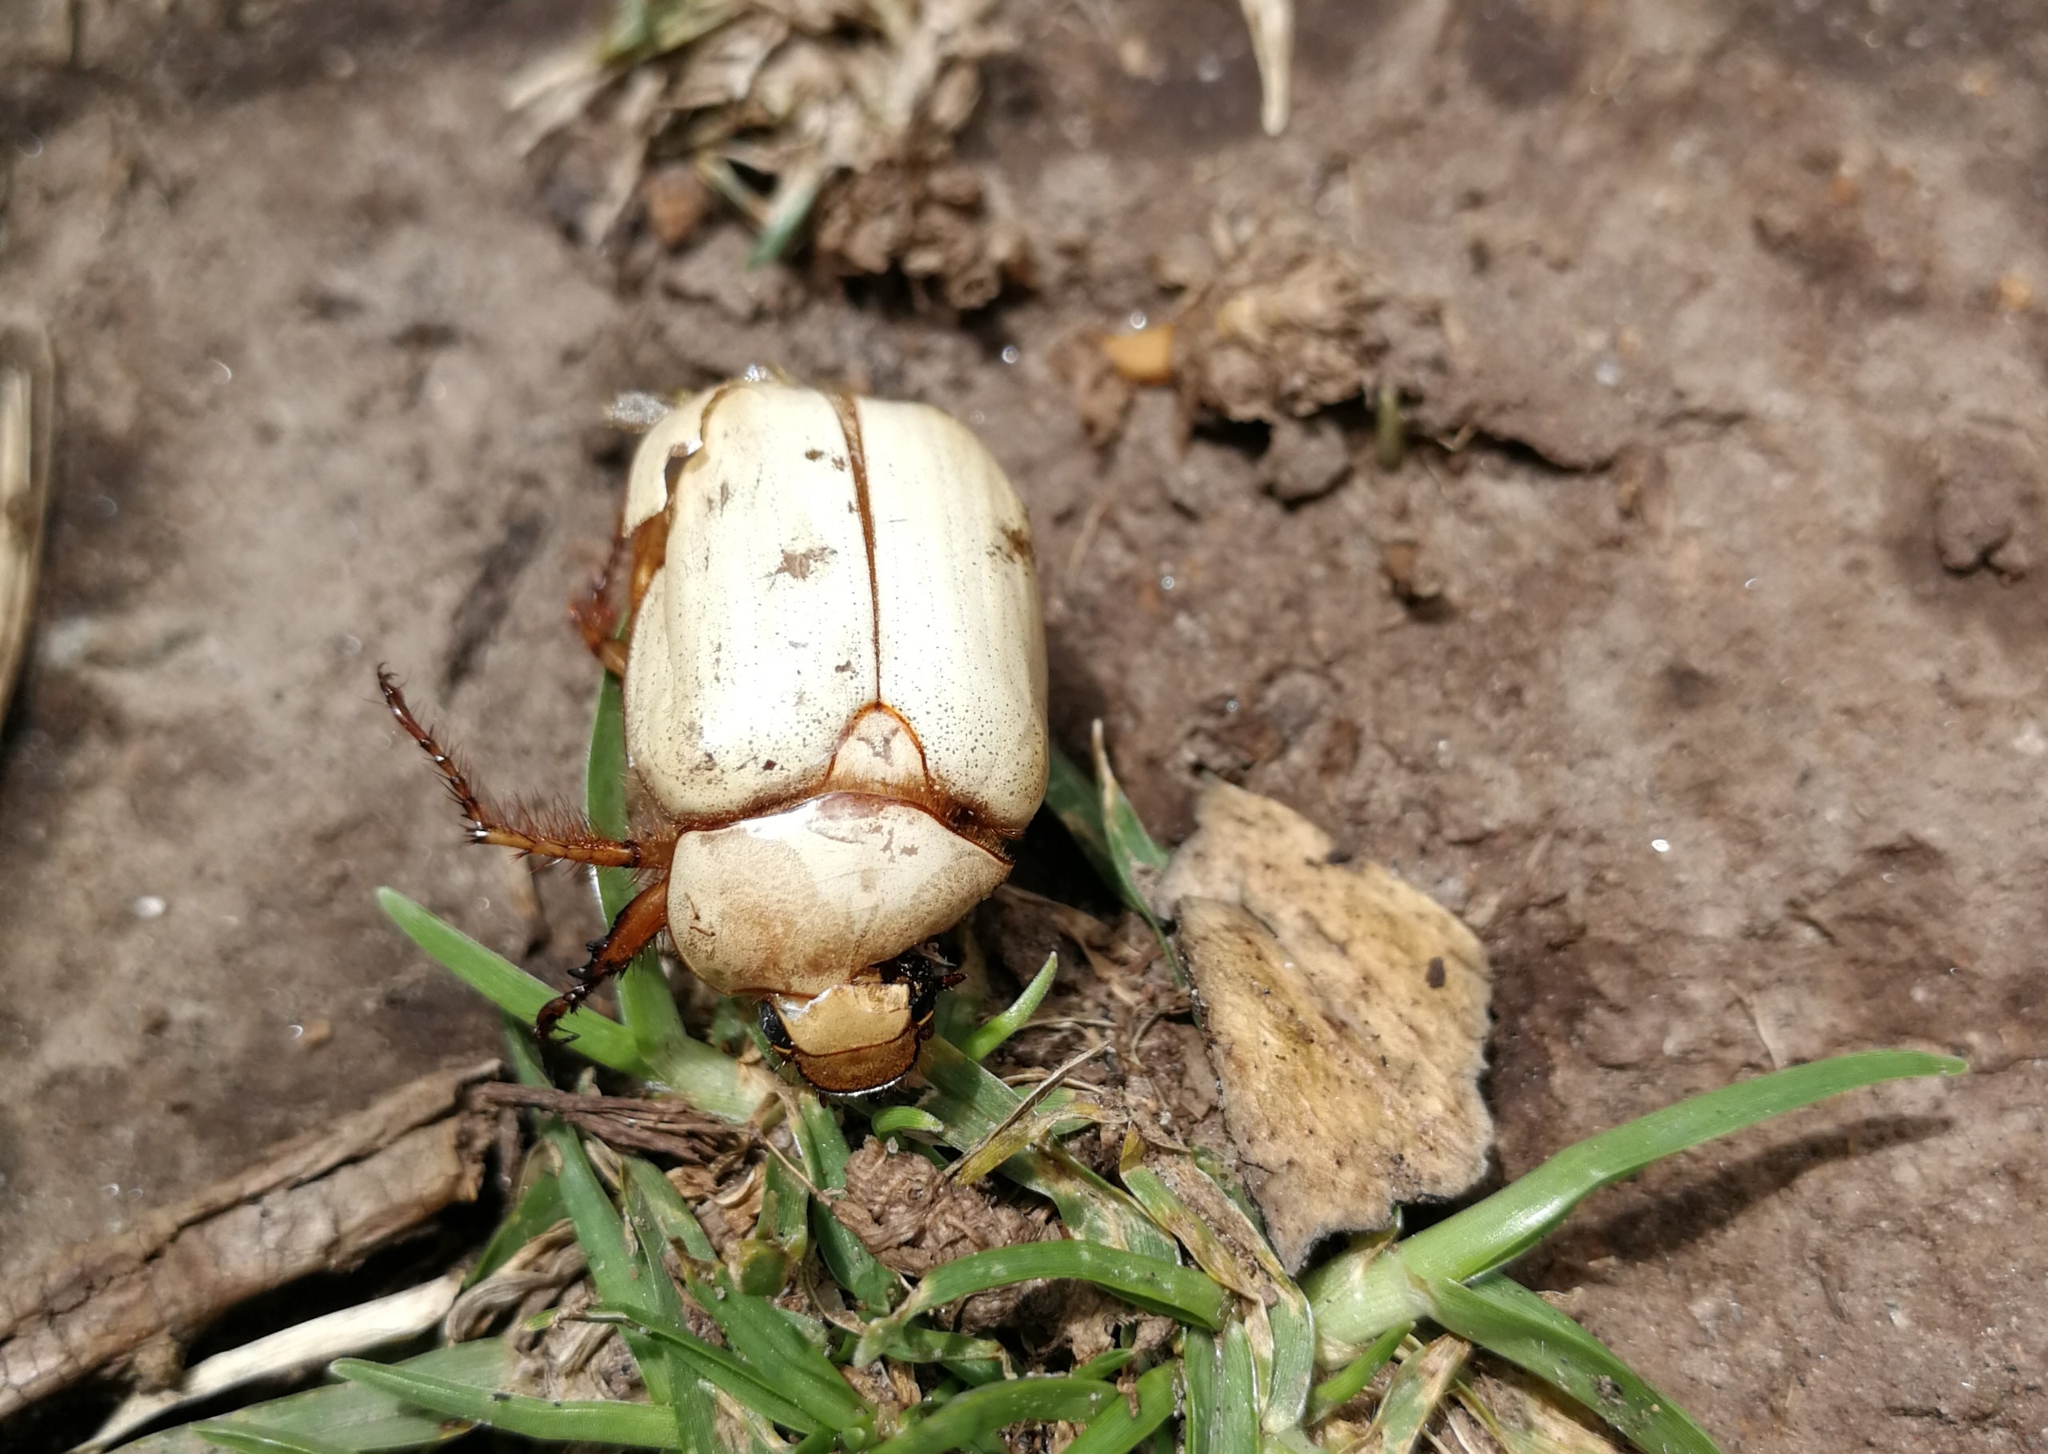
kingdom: Animalia
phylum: Arthropoda
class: Insecta
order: Coleoptera
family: Scarabaeidae
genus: Platycoelia
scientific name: Platycoelia lutescens
